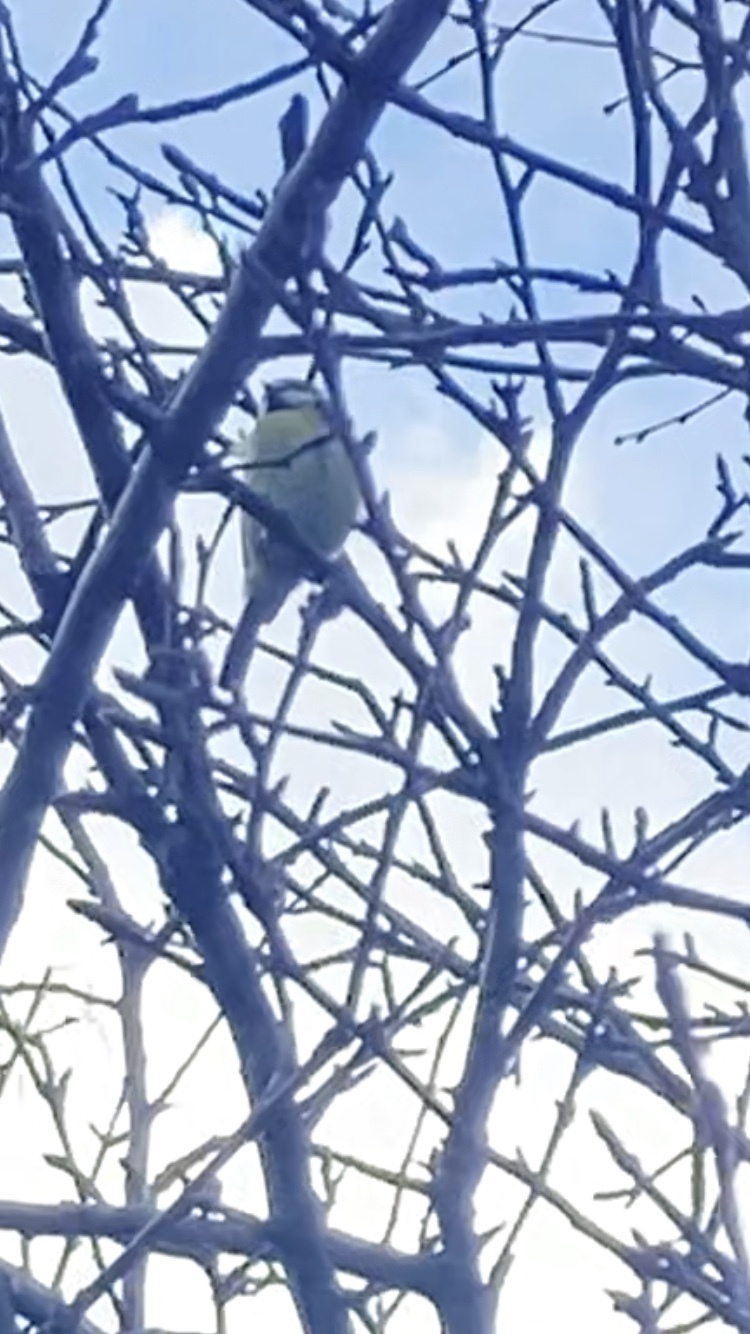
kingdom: Animalia
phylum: Chordata
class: Aves
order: Passeriformes
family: Paridae
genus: Cyanistes
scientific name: Cyanistes caeruleus
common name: Eurasian blue tit
